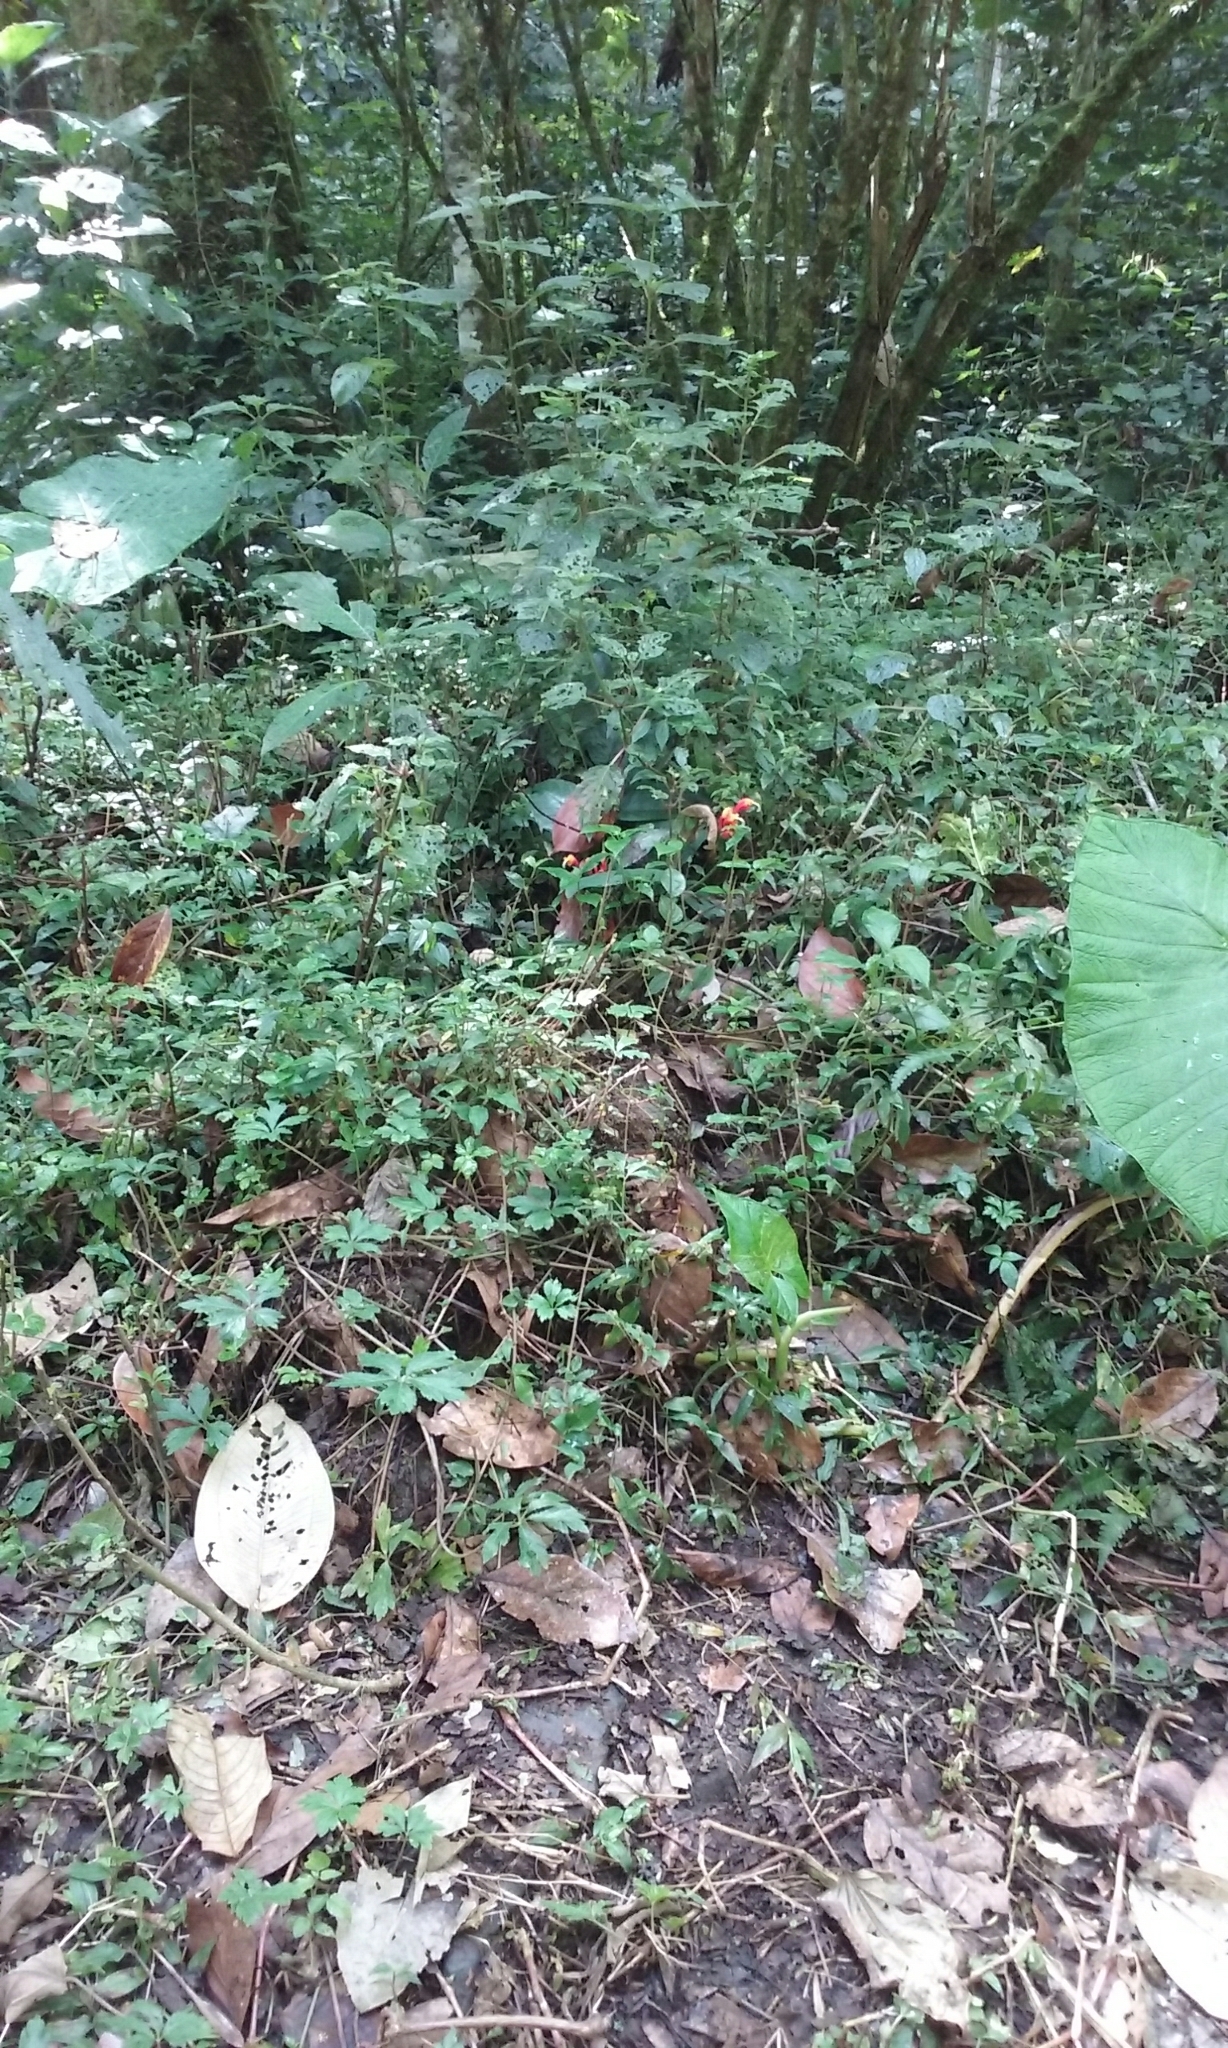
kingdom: Plantae
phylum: Tracheophyta
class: Magnoliopsida
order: Asterales
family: Campanulaceae
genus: Centropogon
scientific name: Centropogon granulosus
